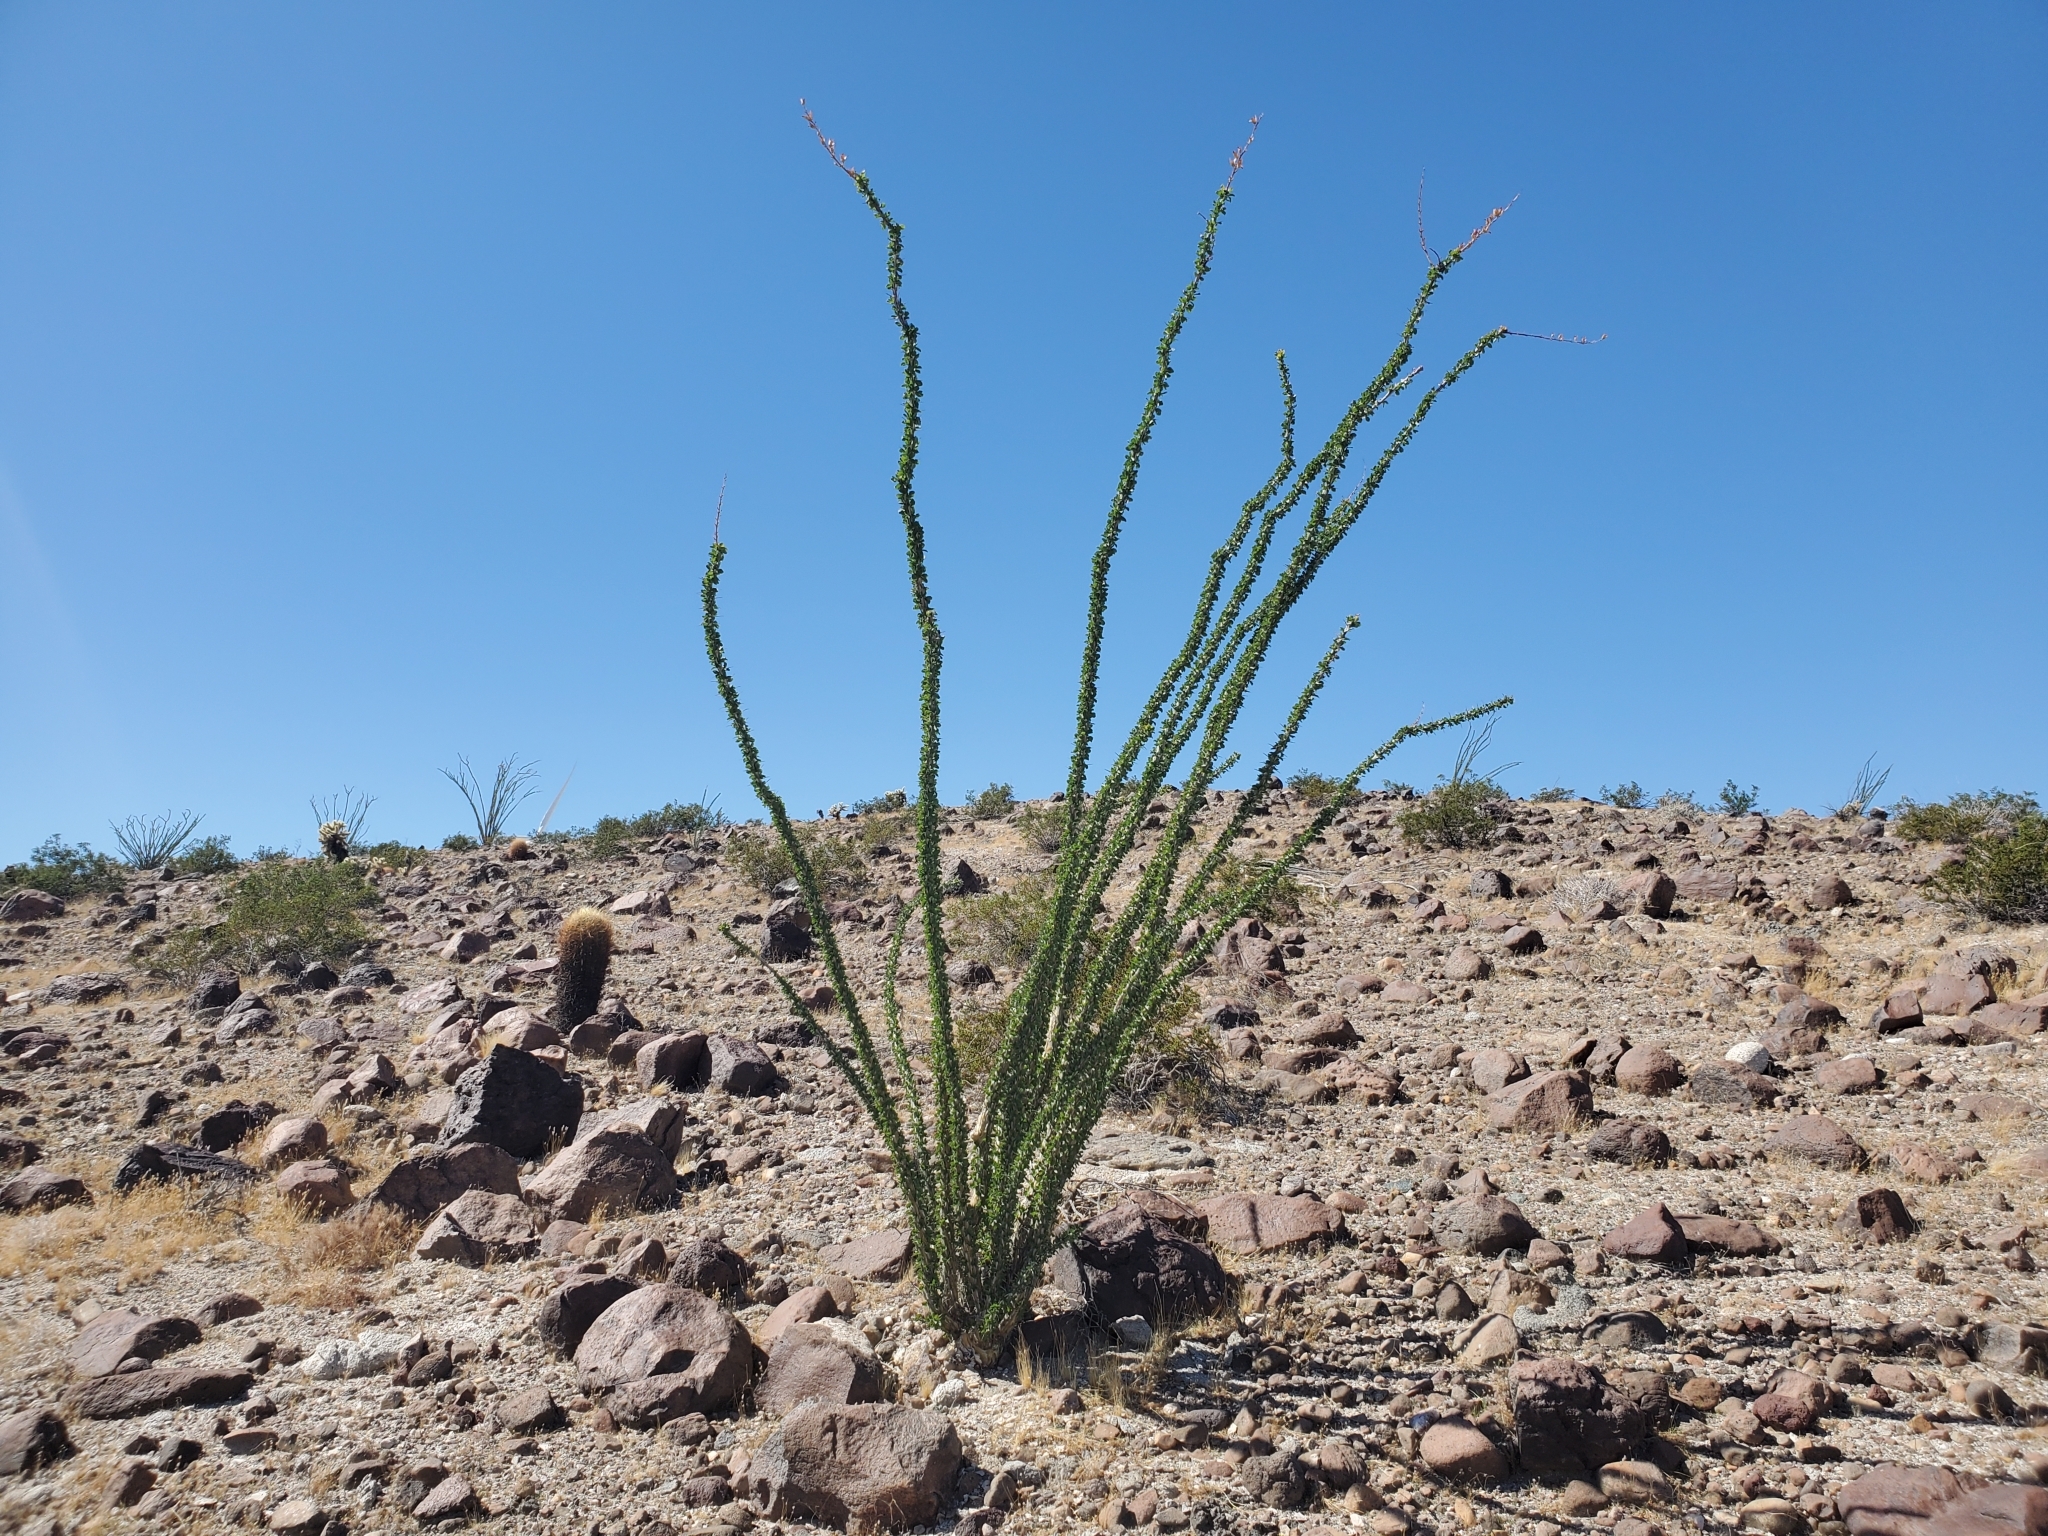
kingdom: Plantae
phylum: Tracheophyta
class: Magnoliopsida
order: Ericales
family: Fouquieriaceae
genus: Fouquieria
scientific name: Fouquieria splendens
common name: Vine-cactus
